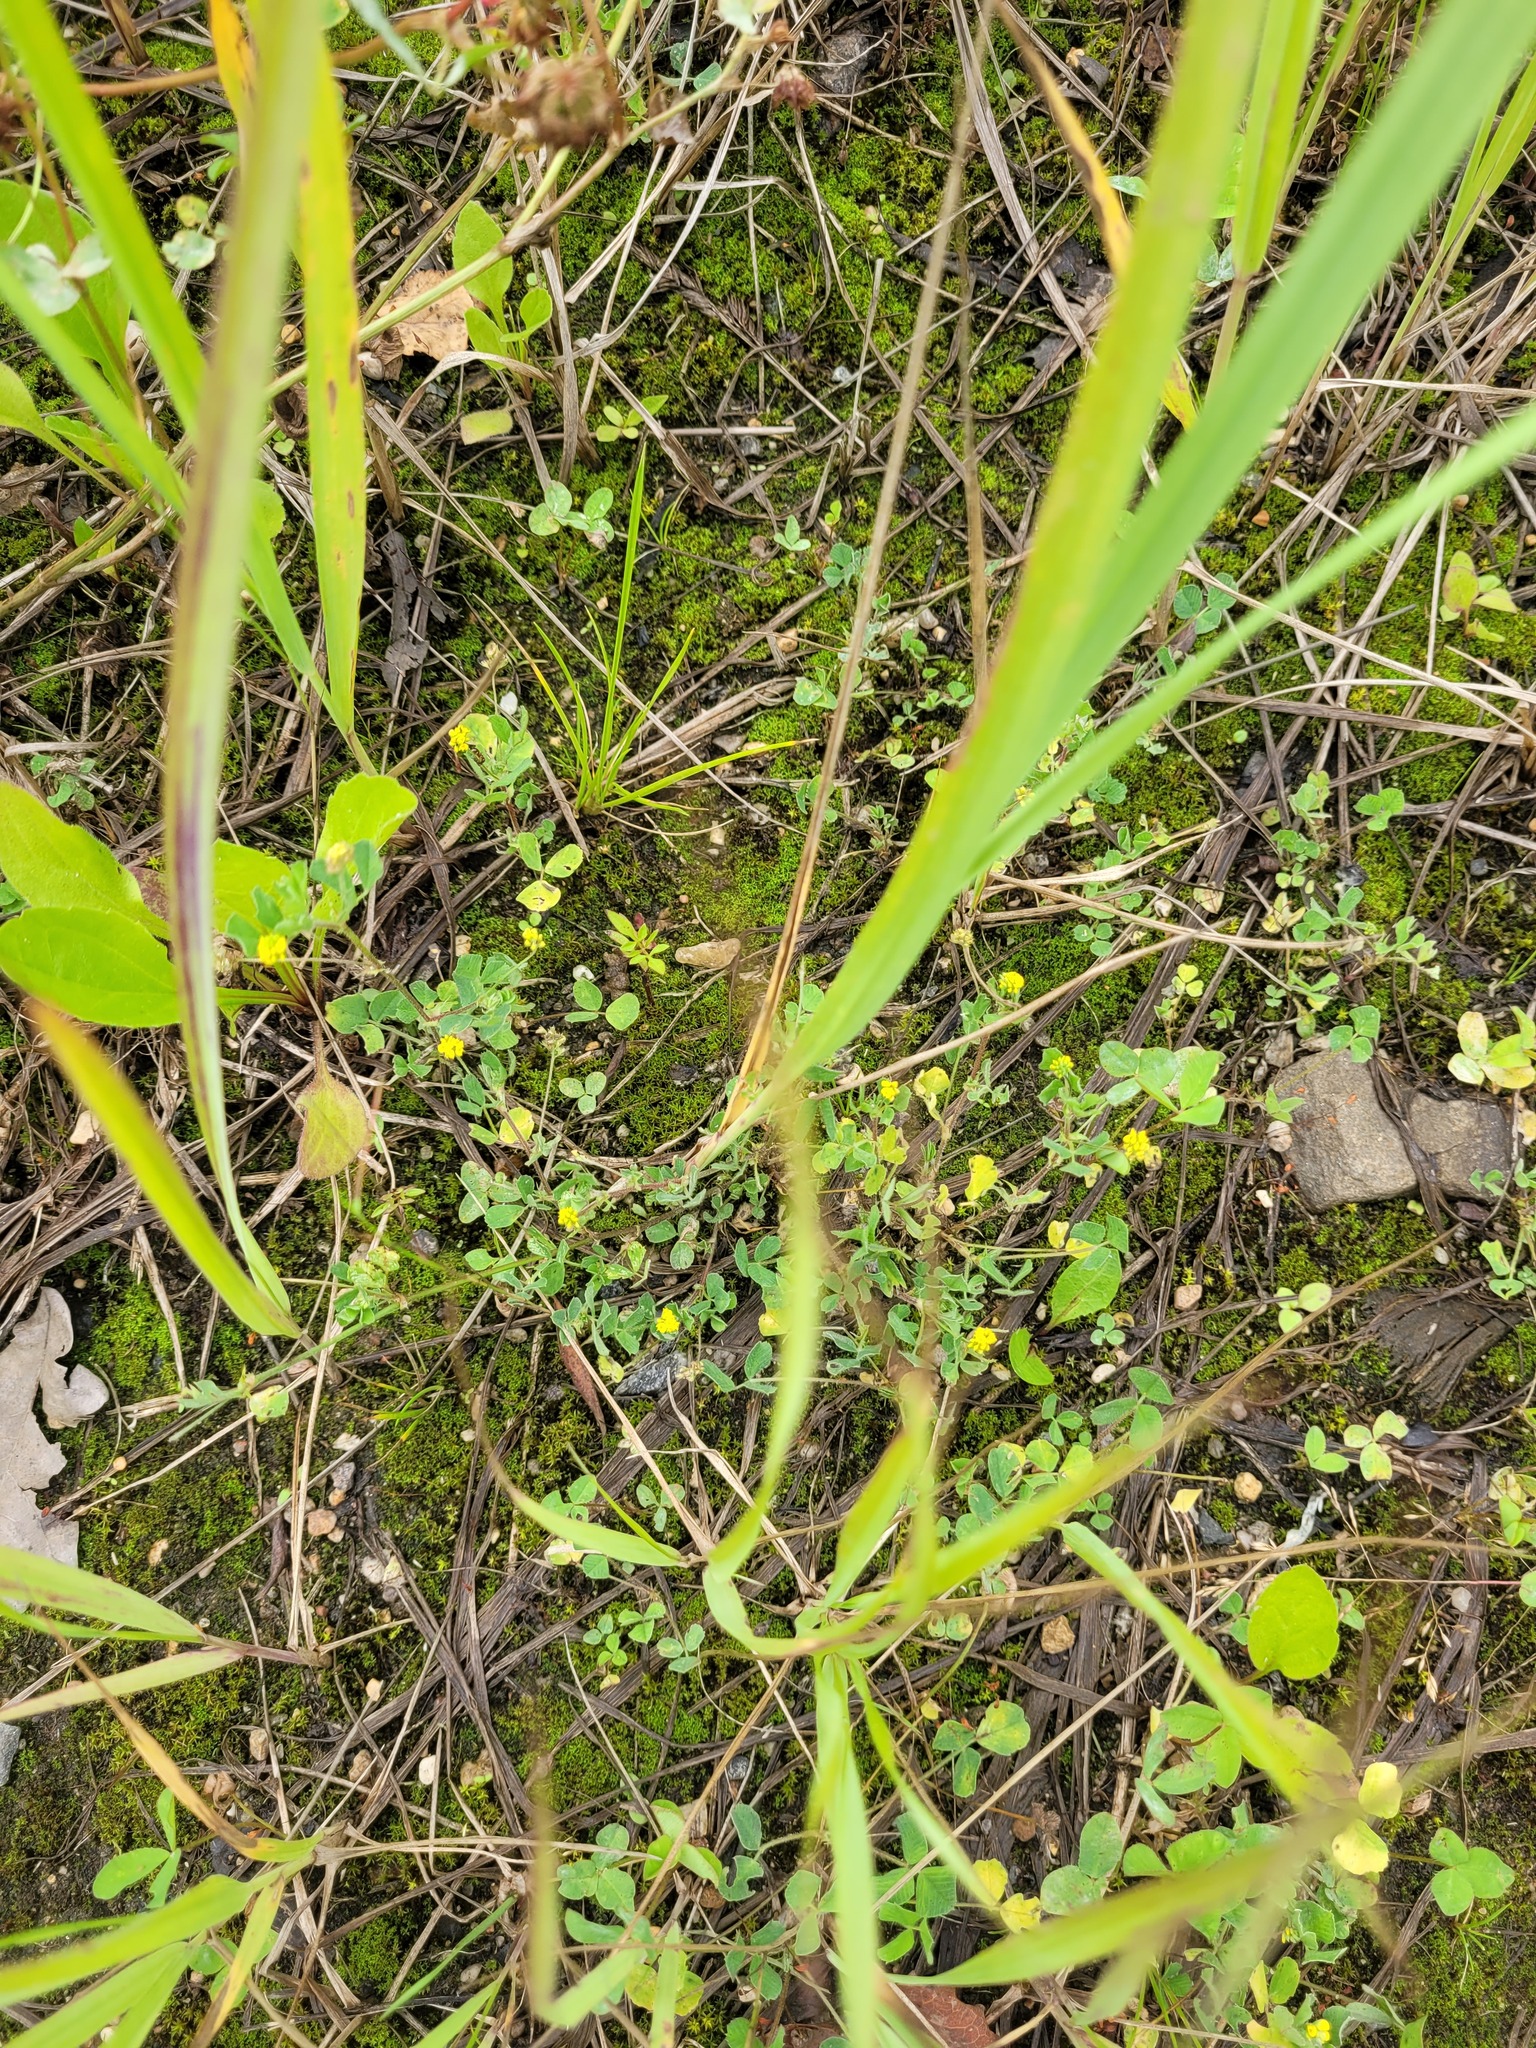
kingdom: Plantae
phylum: Tracheophyta
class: Magnoliopsida
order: Fabales
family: Fabaceae
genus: Medicago
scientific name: Medicago lupulina
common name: Black medick
